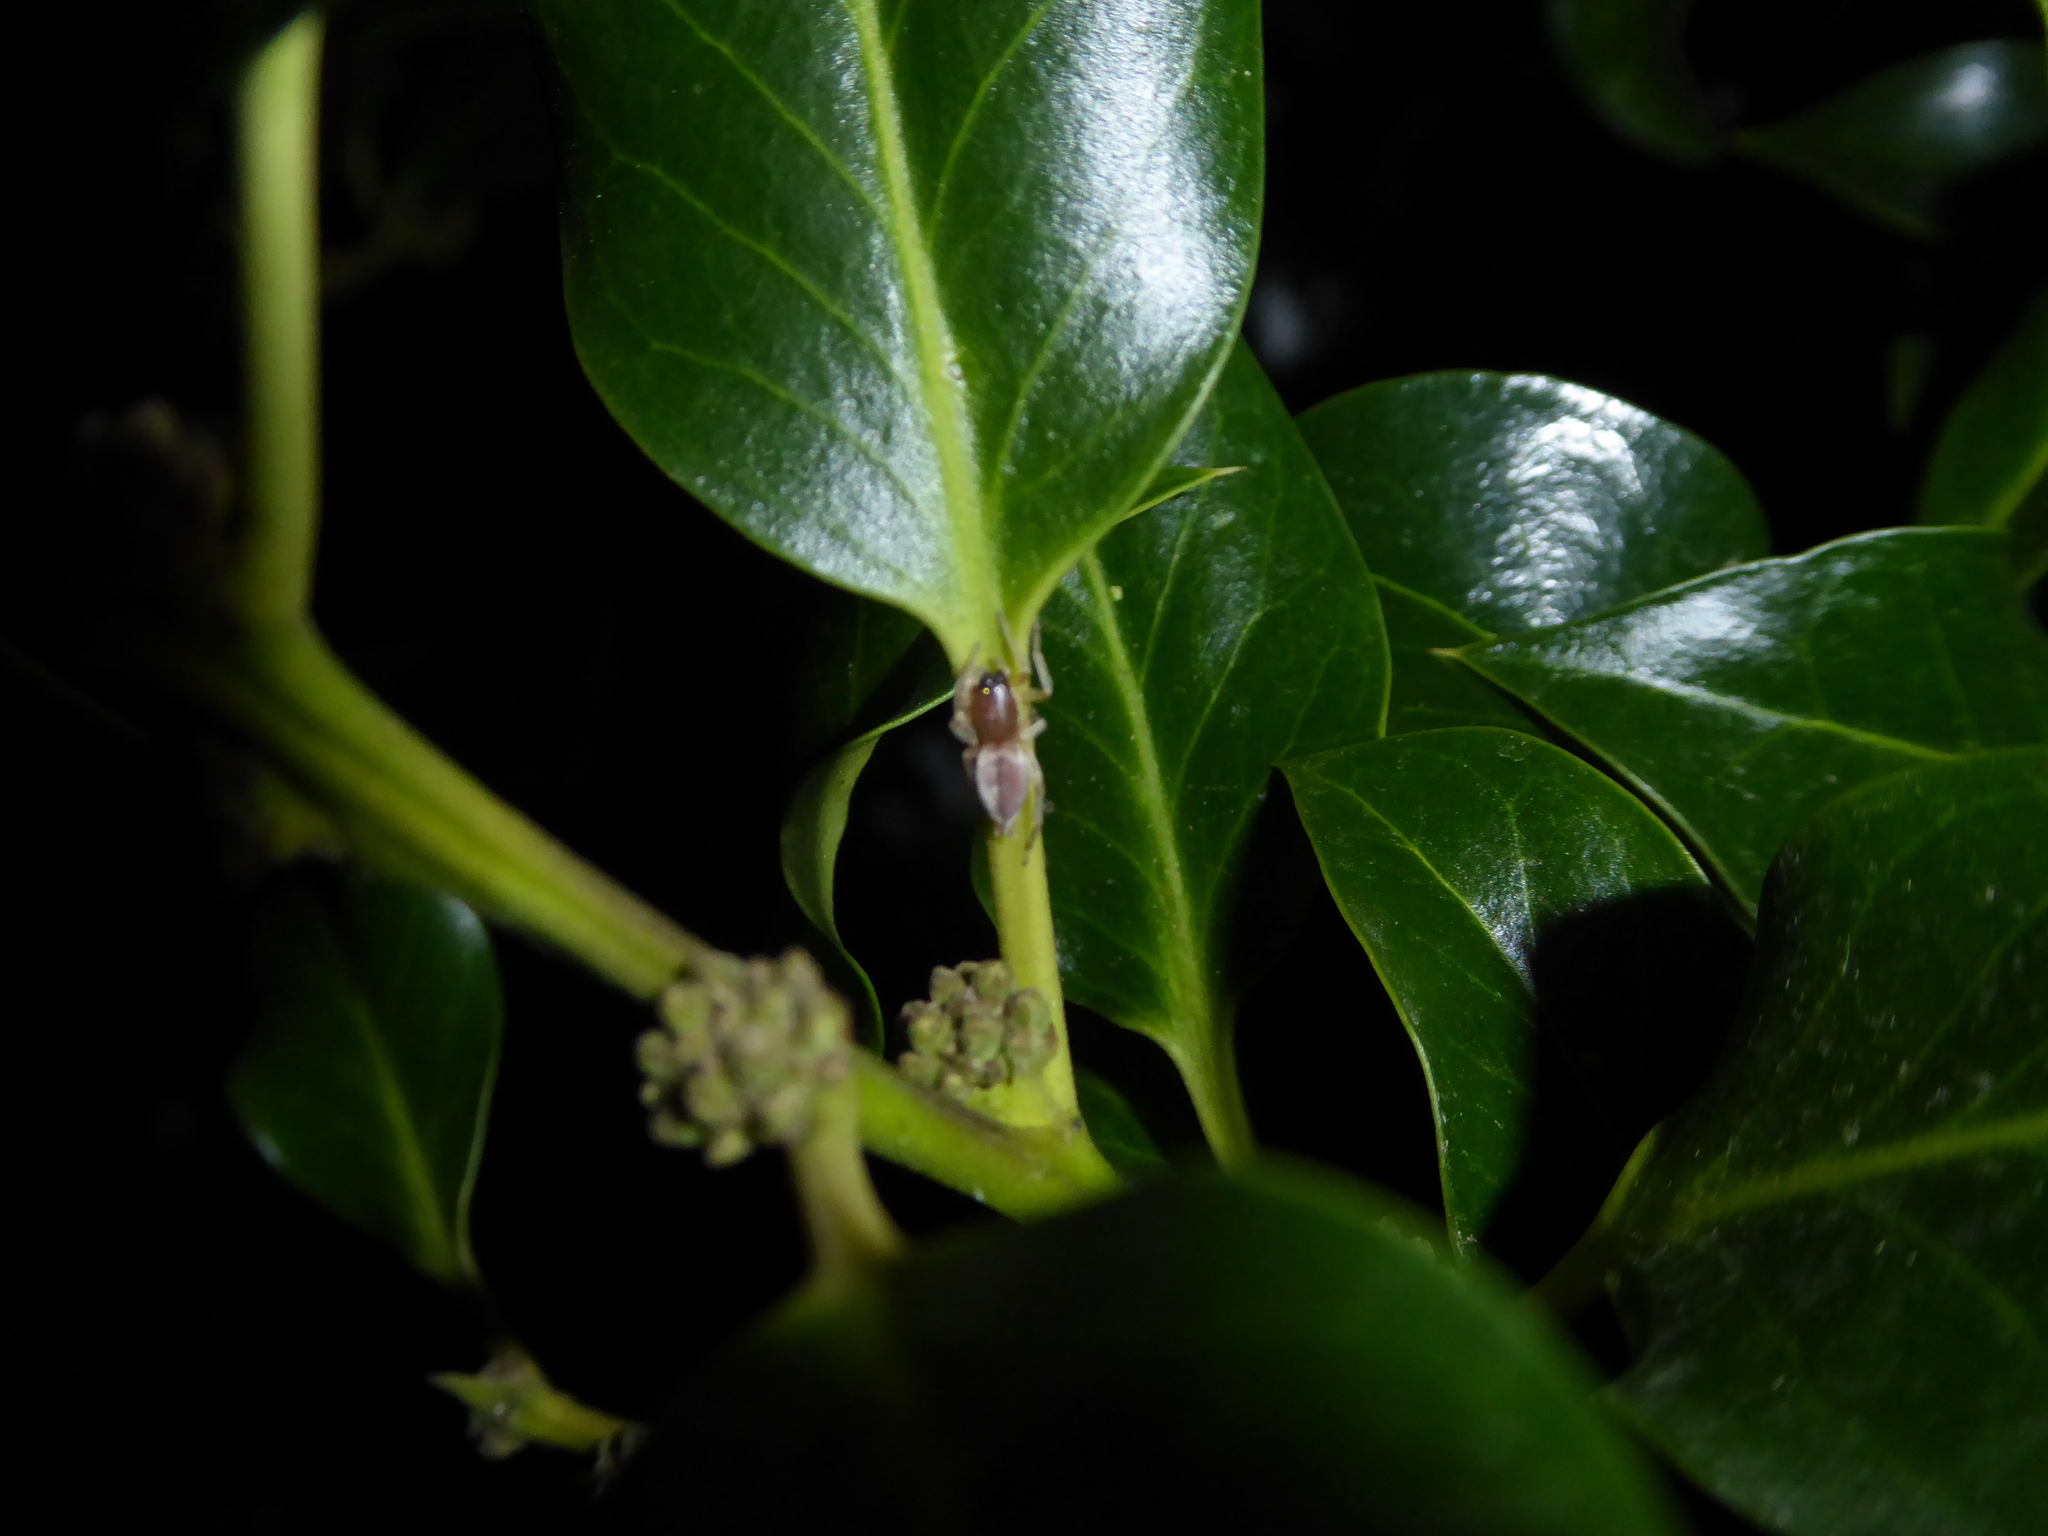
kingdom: Animalia
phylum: Arthropoda
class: Arachnida
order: Araneae
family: Clubionidae
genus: Clubiona
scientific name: Clubiona
